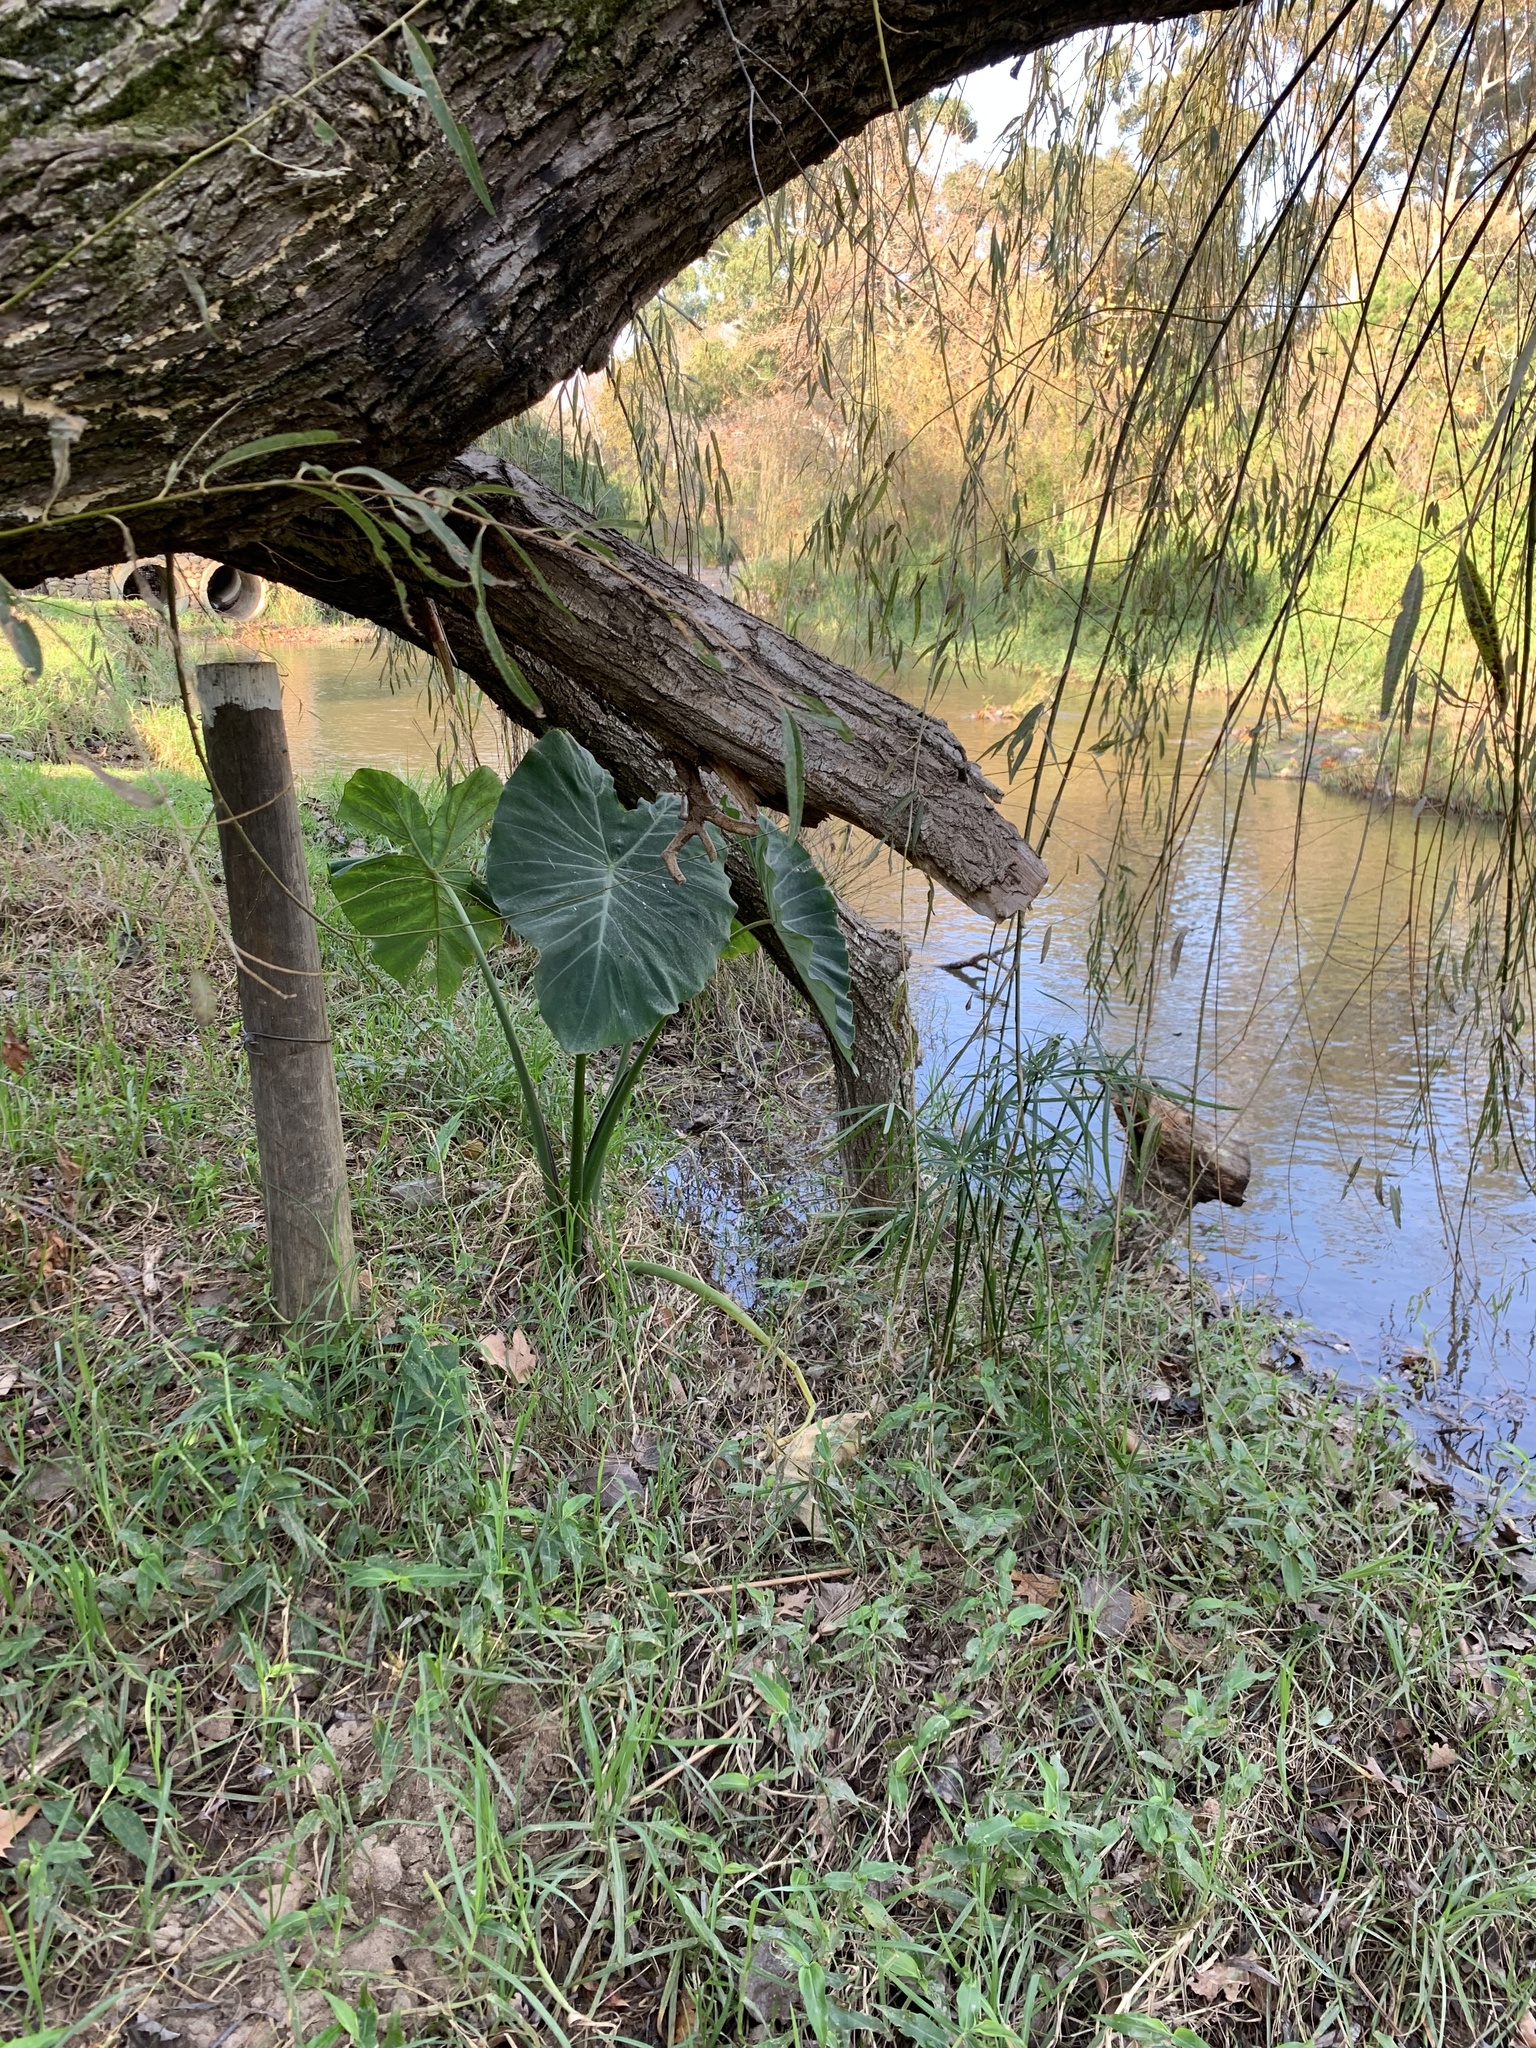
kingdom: Plantae
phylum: Tracheophyta
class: Liliopsida
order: Alismatales
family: Araceae
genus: Colocasia
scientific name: Colocasia esculenta
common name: Taro
